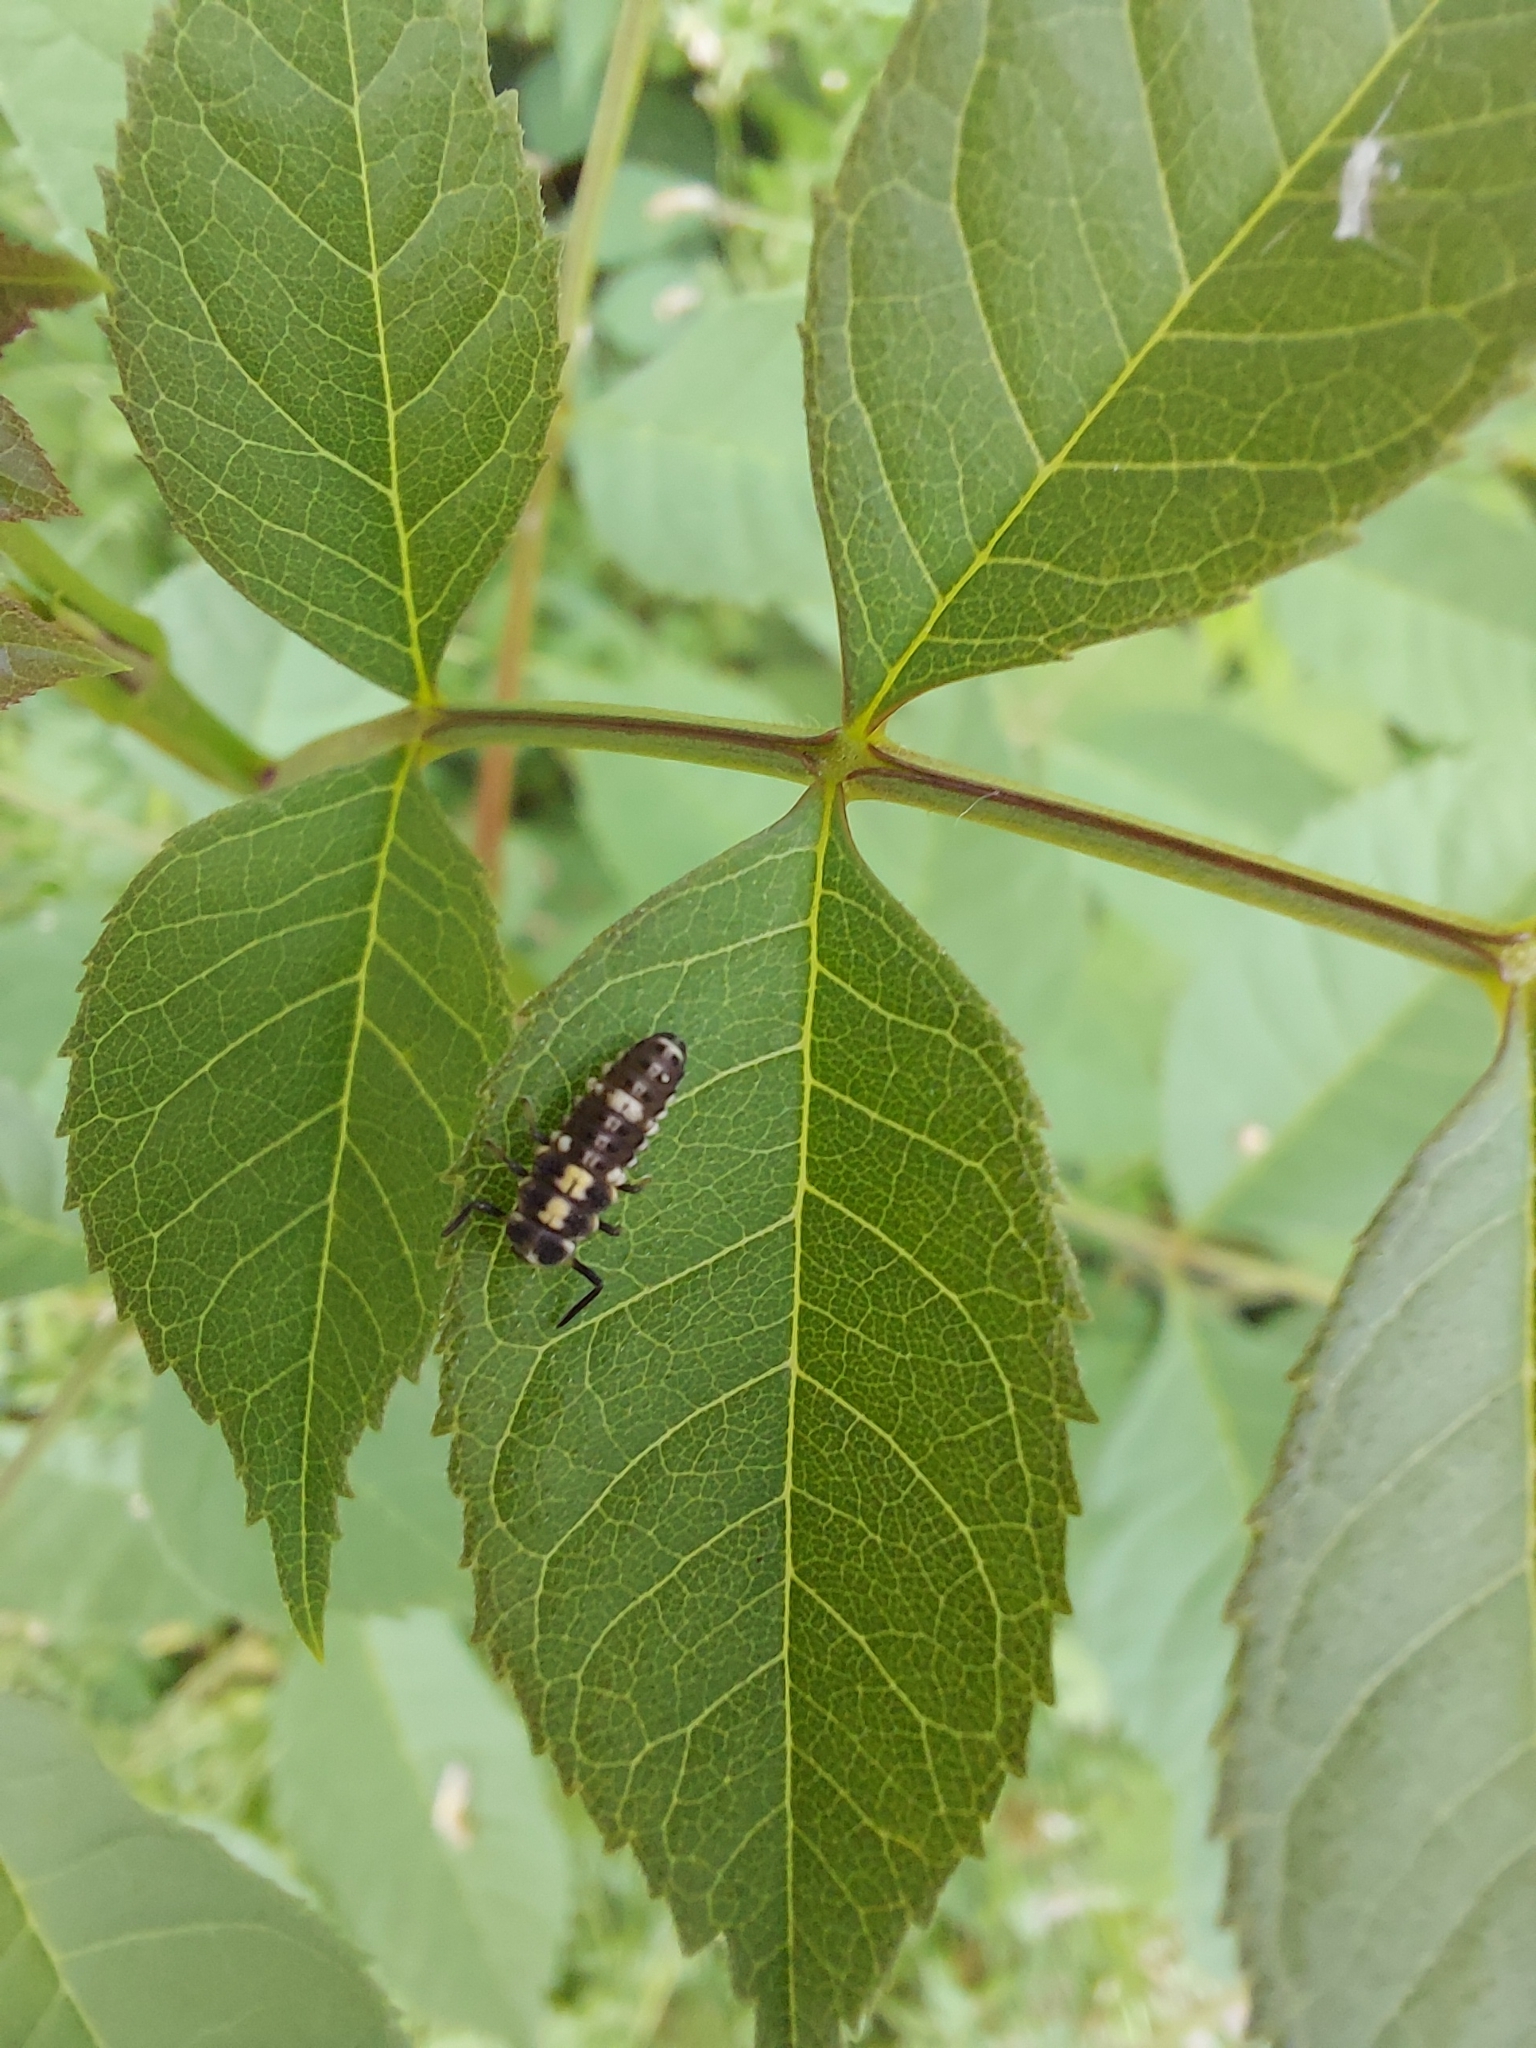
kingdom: Animalia
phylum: Arthropoda
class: Insecta
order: Coleoptera
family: Coccinellidae
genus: Propylaea
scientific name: Propylaea quatuordecimpunctata
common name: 14-spotted ladybird beetle
